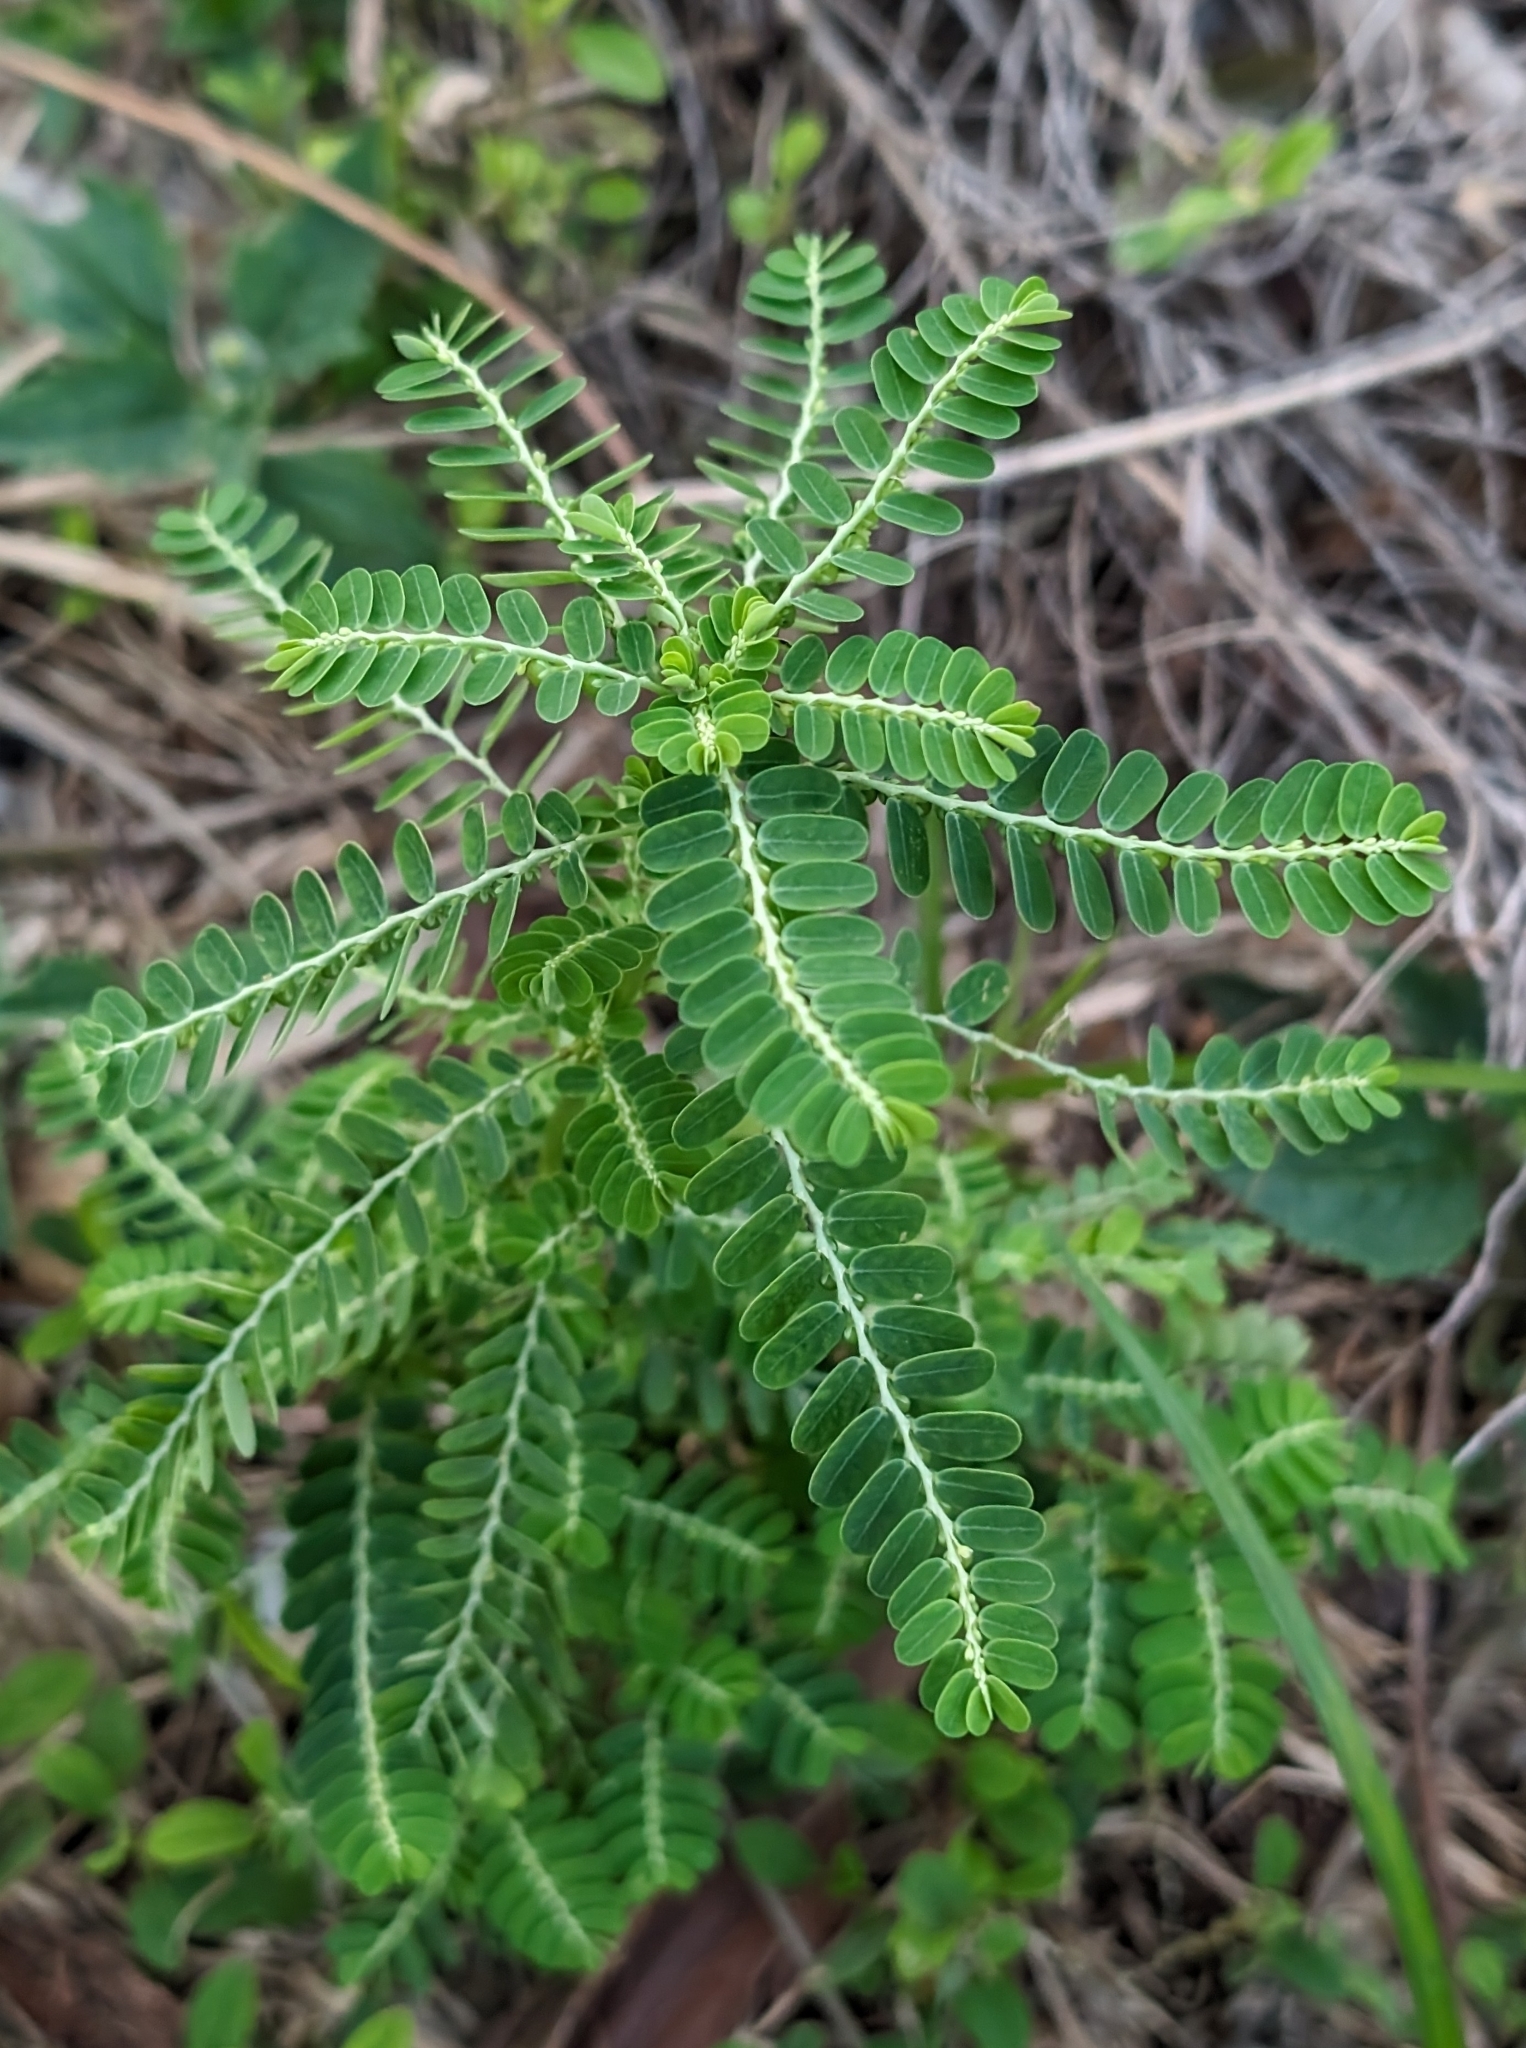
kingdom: Plantae
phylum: Tracheophyta
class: Magnoliopsida
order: Malpighiales
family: Phyllanthaceae
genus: Phyllanthus
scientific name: Phyllanthus amarus
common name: Carry me seed
